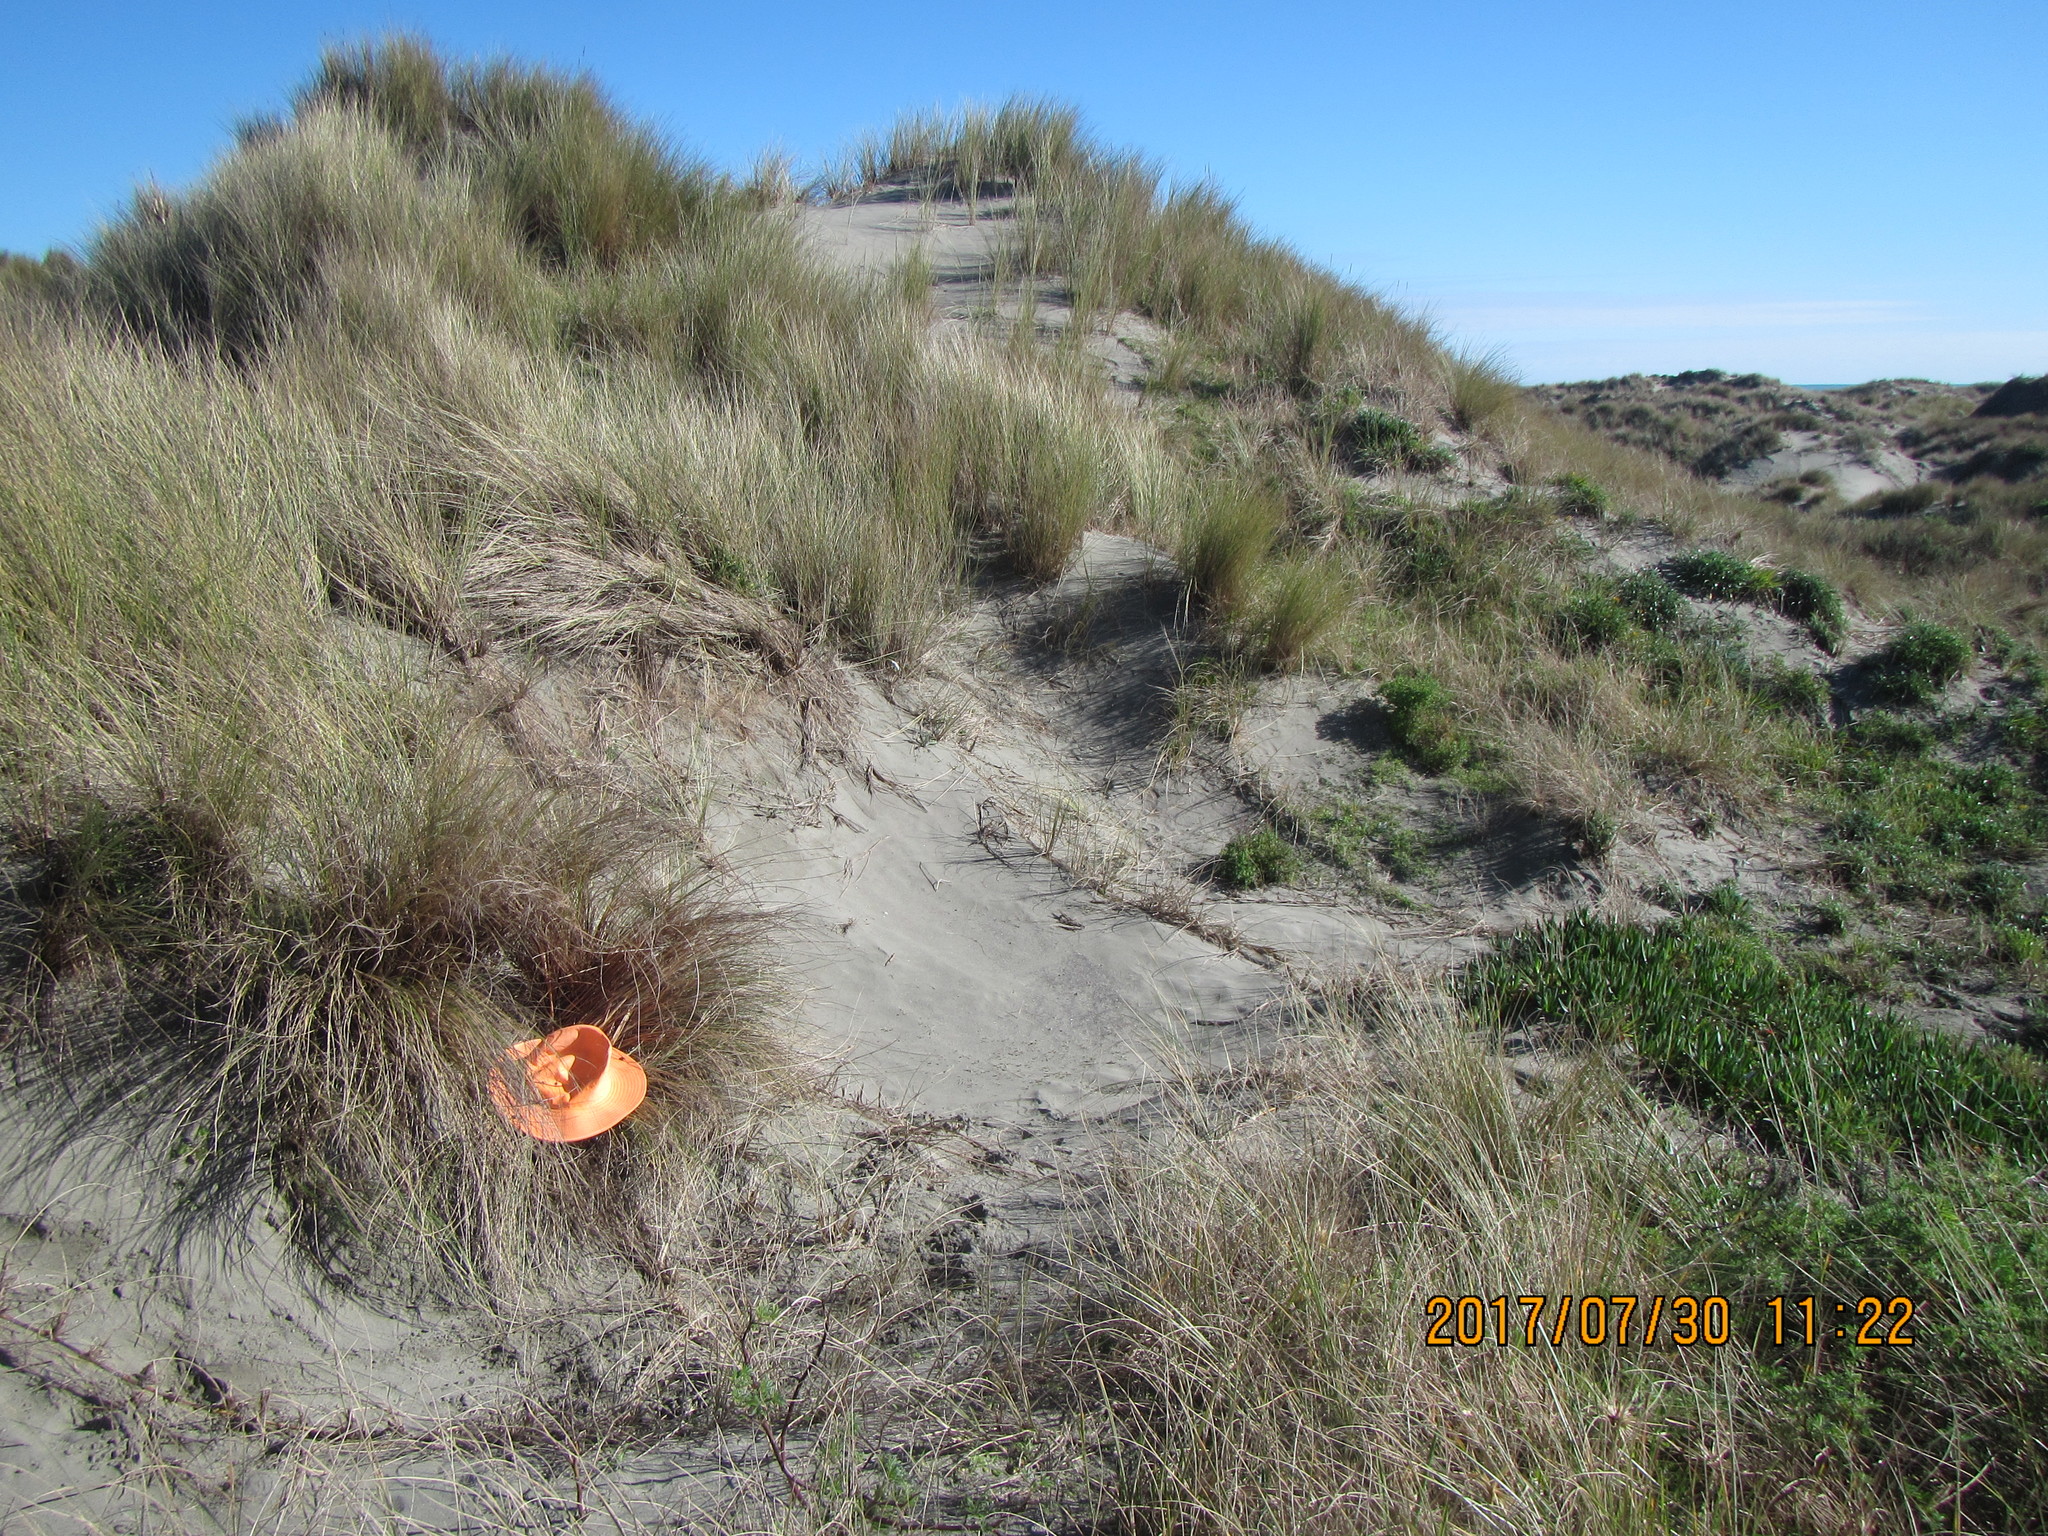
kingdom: Animalia
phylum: Arthropoda
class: Arachnida
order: Araneae
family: Thomisidae
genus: Sidymella
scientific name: Sidymella trapezia
